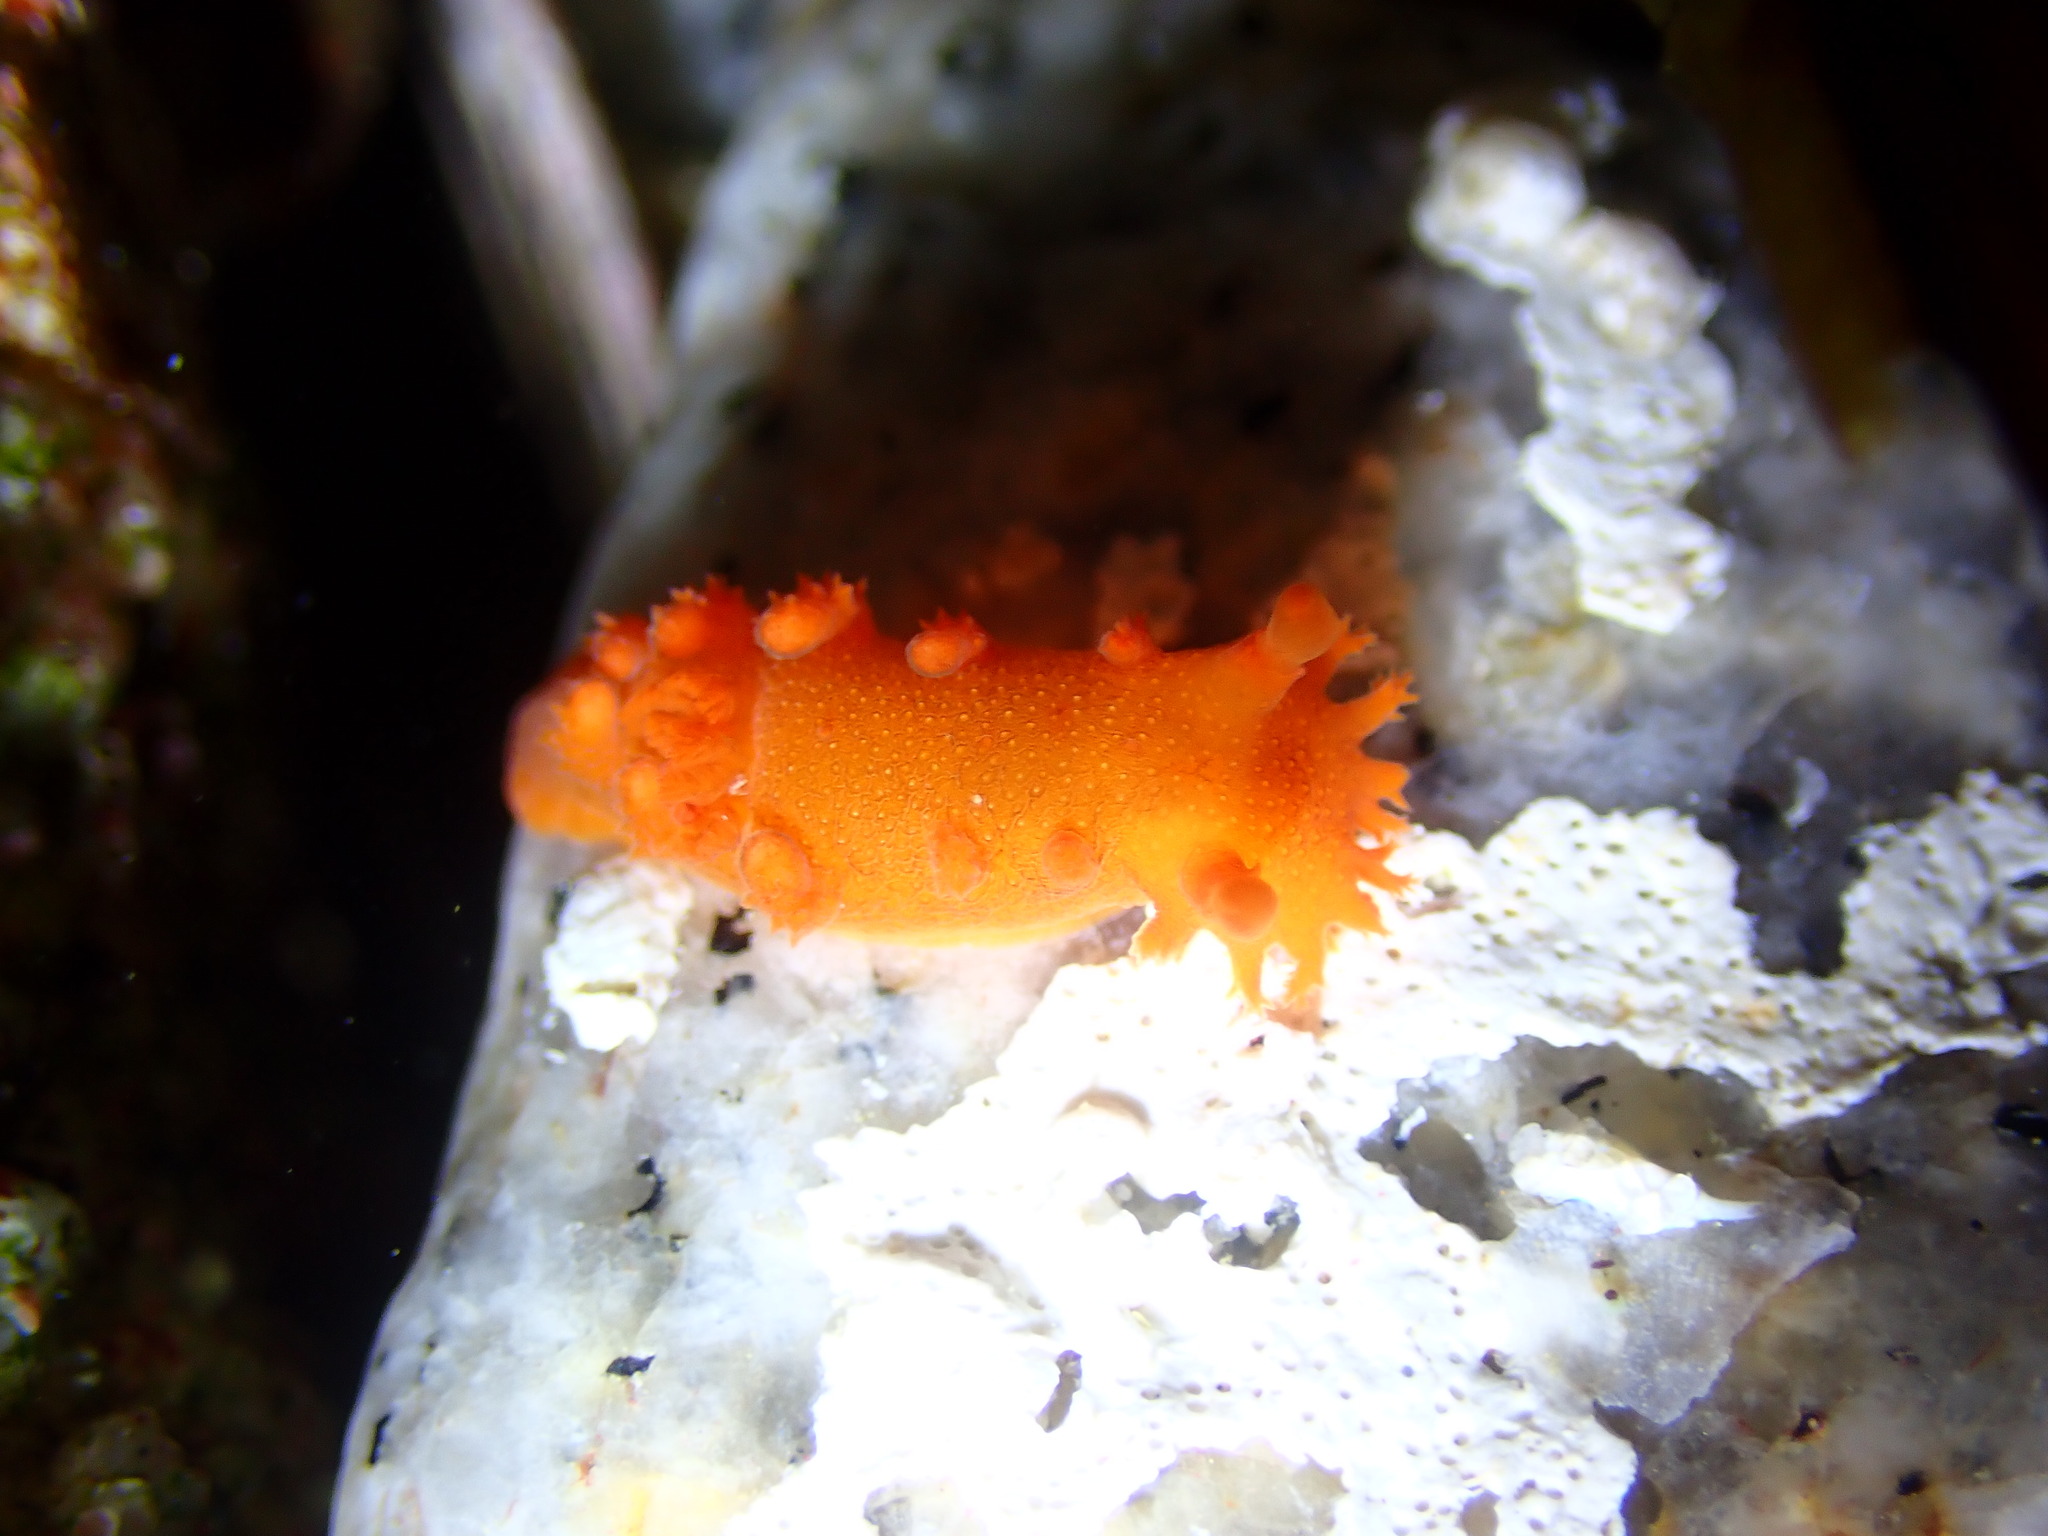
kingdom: Animalia
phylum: Mollusca
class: Gastropoda
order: Nudibranchia
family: Polyceridae
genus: Triopha
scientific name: Triopha maculata
